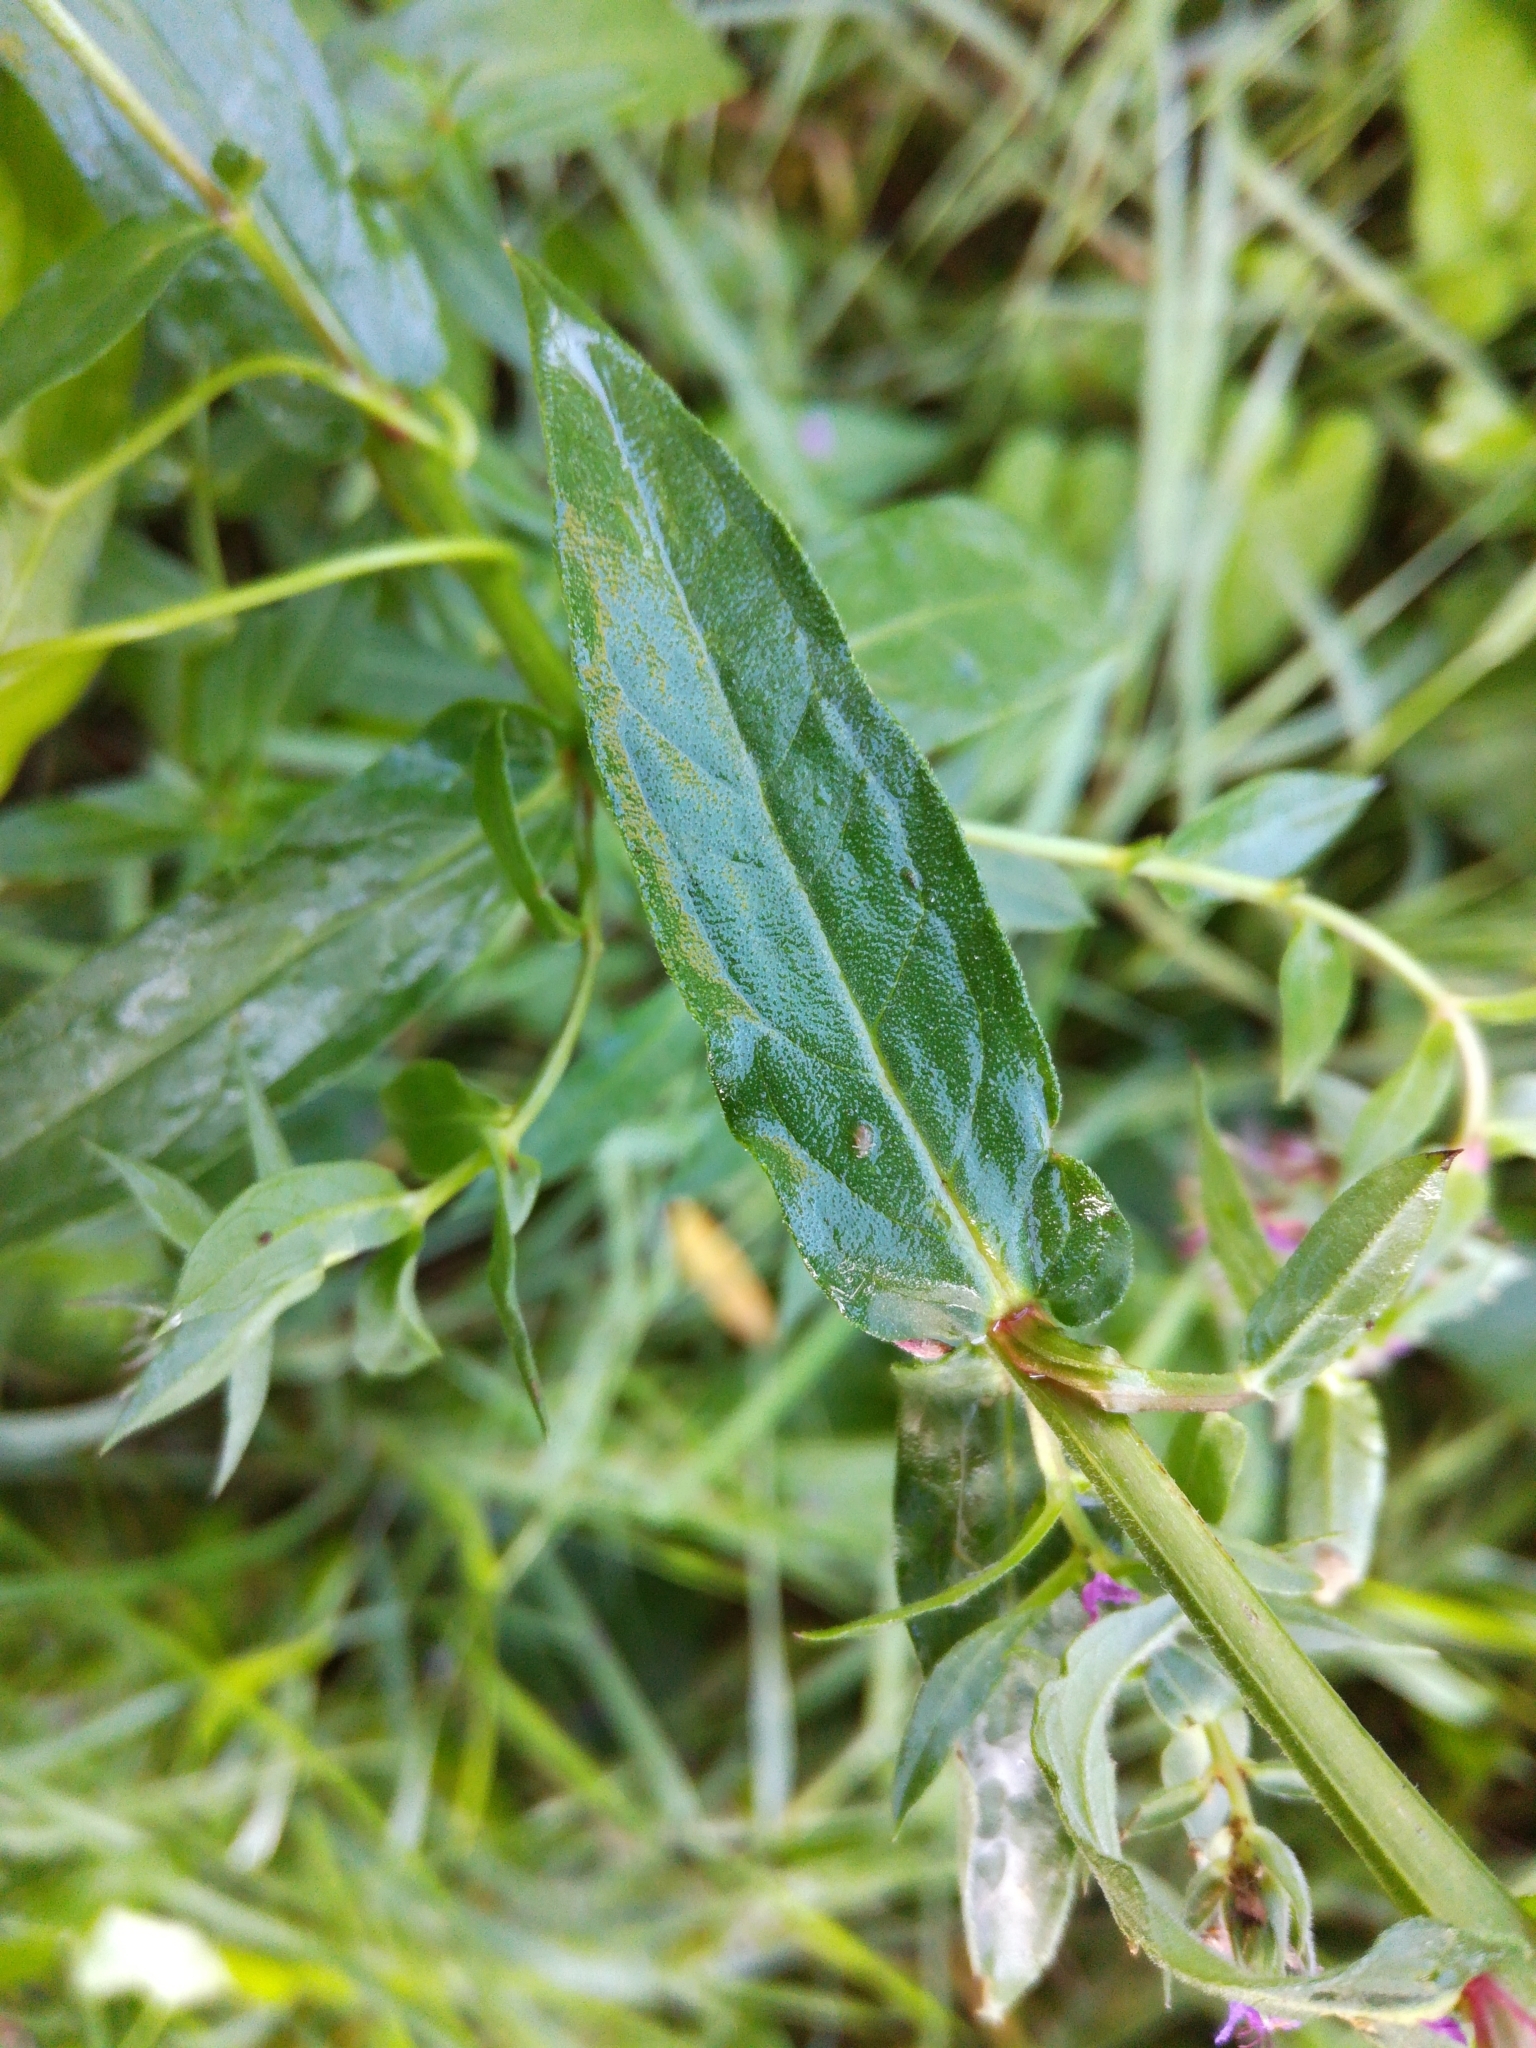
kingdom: Plantae
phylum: Tracheophyta
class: Magnoliopsida
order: Myrtales
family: Lythraceae
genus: Lythrum
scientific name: Lythrum salicaria
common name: Purple loosestrife
